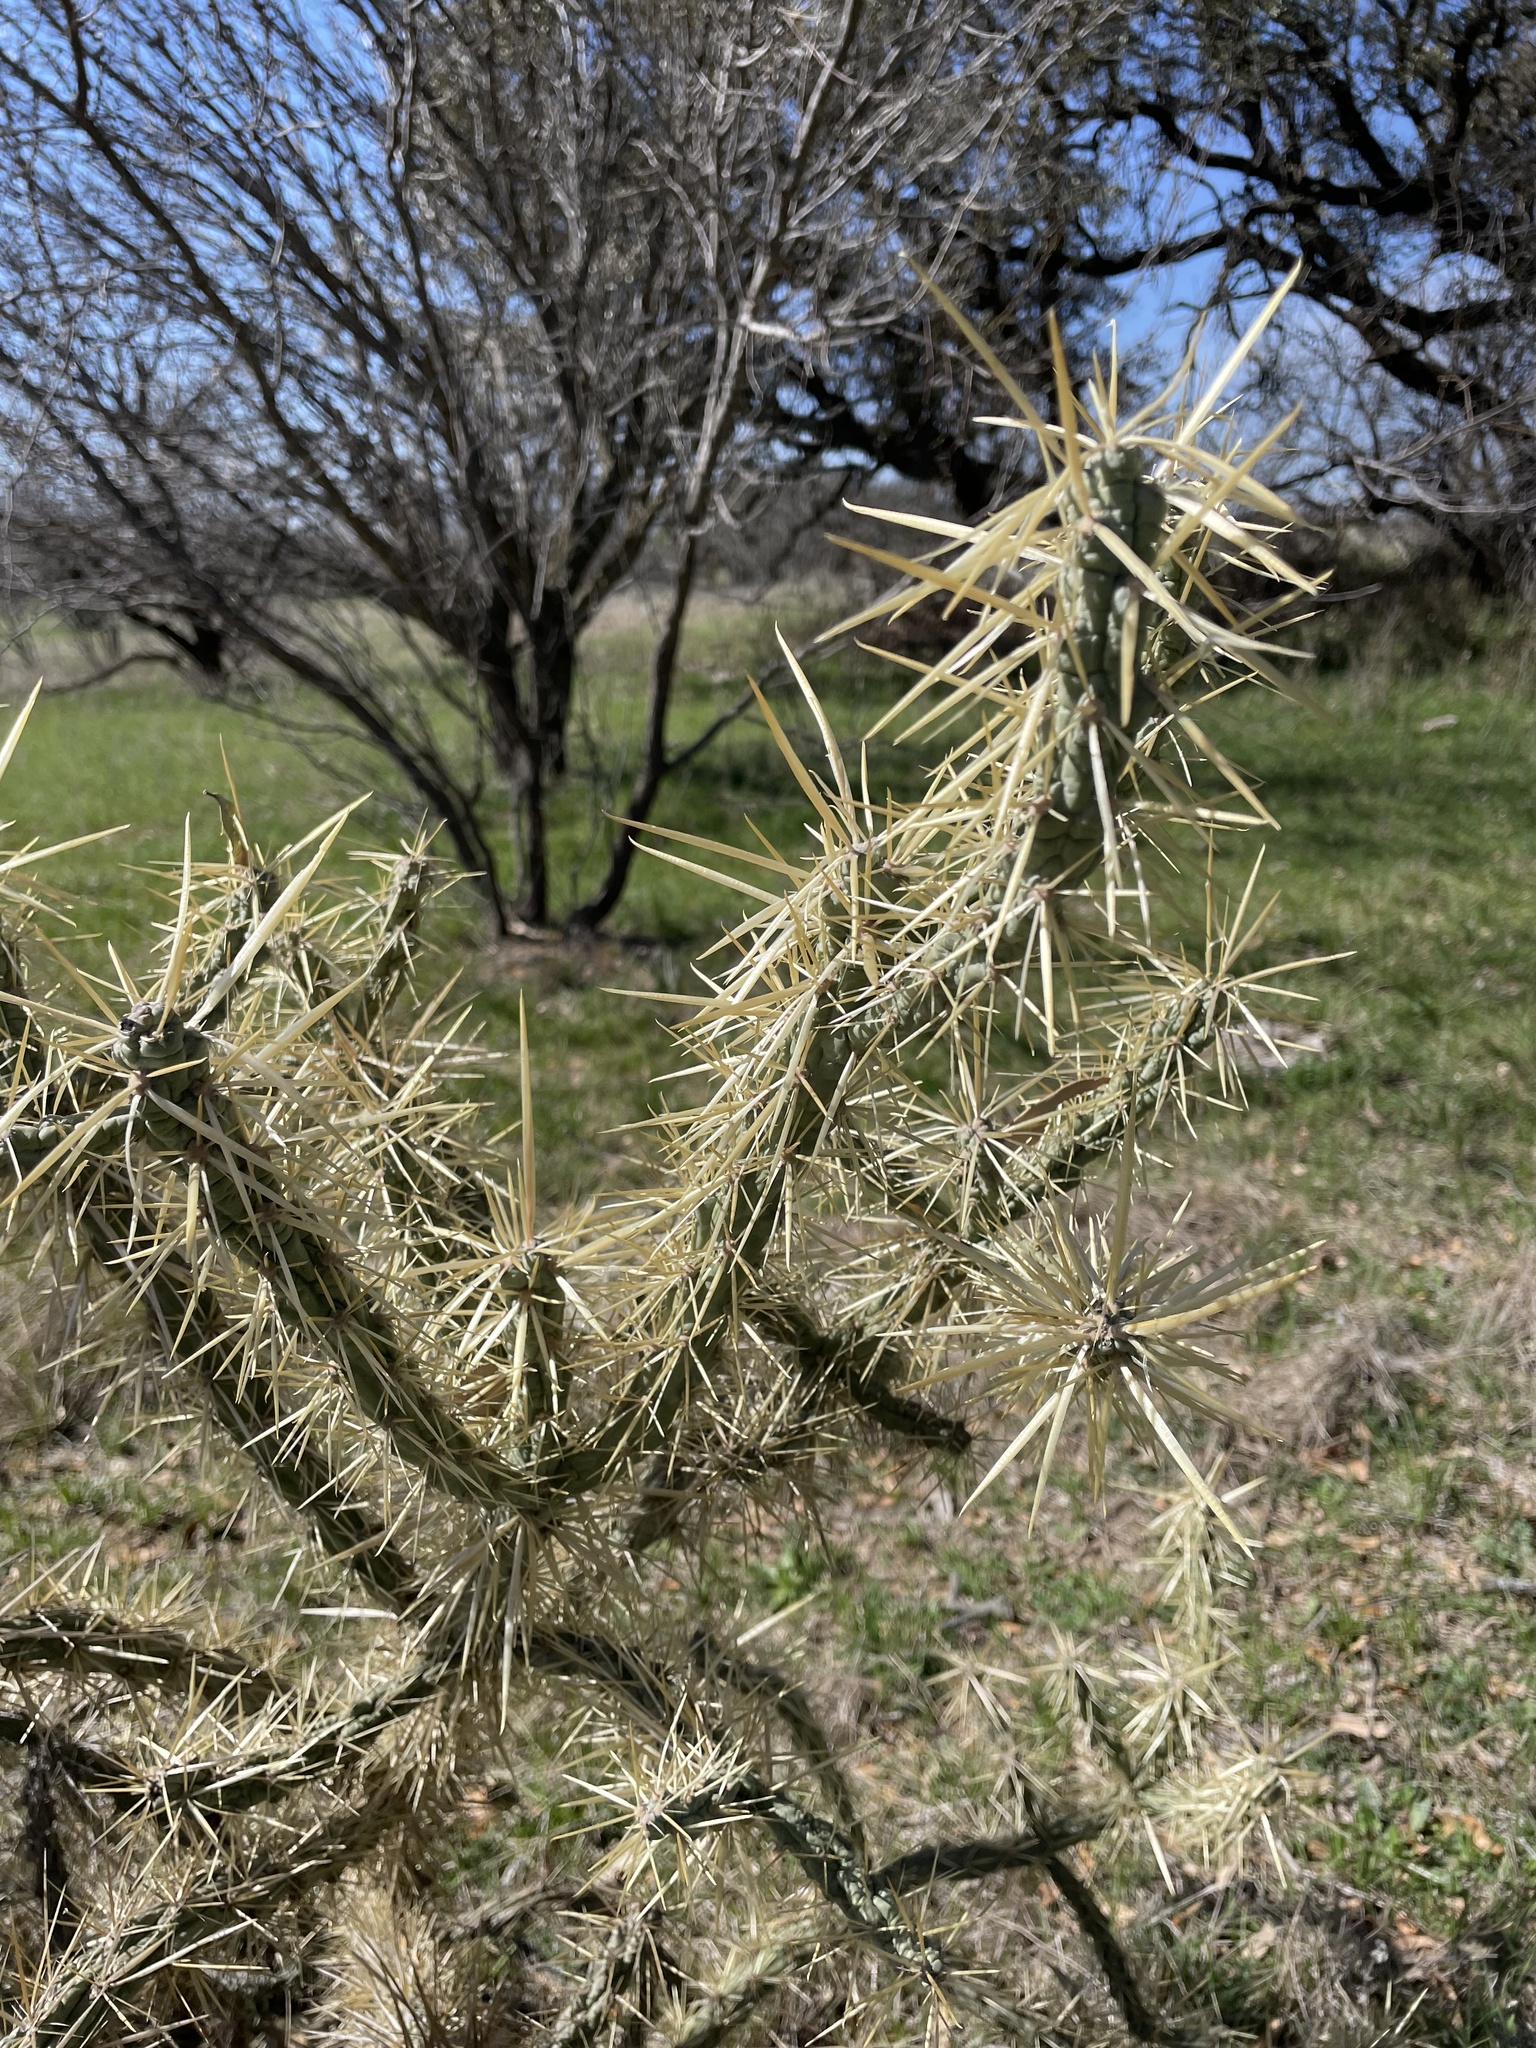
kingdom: Plantae
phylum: Tracheophyta
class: Magnoliopsida
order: Caryophyllales
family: Cactaceae
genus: Cylindropuntia
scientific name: Cylindropuntia davisii
